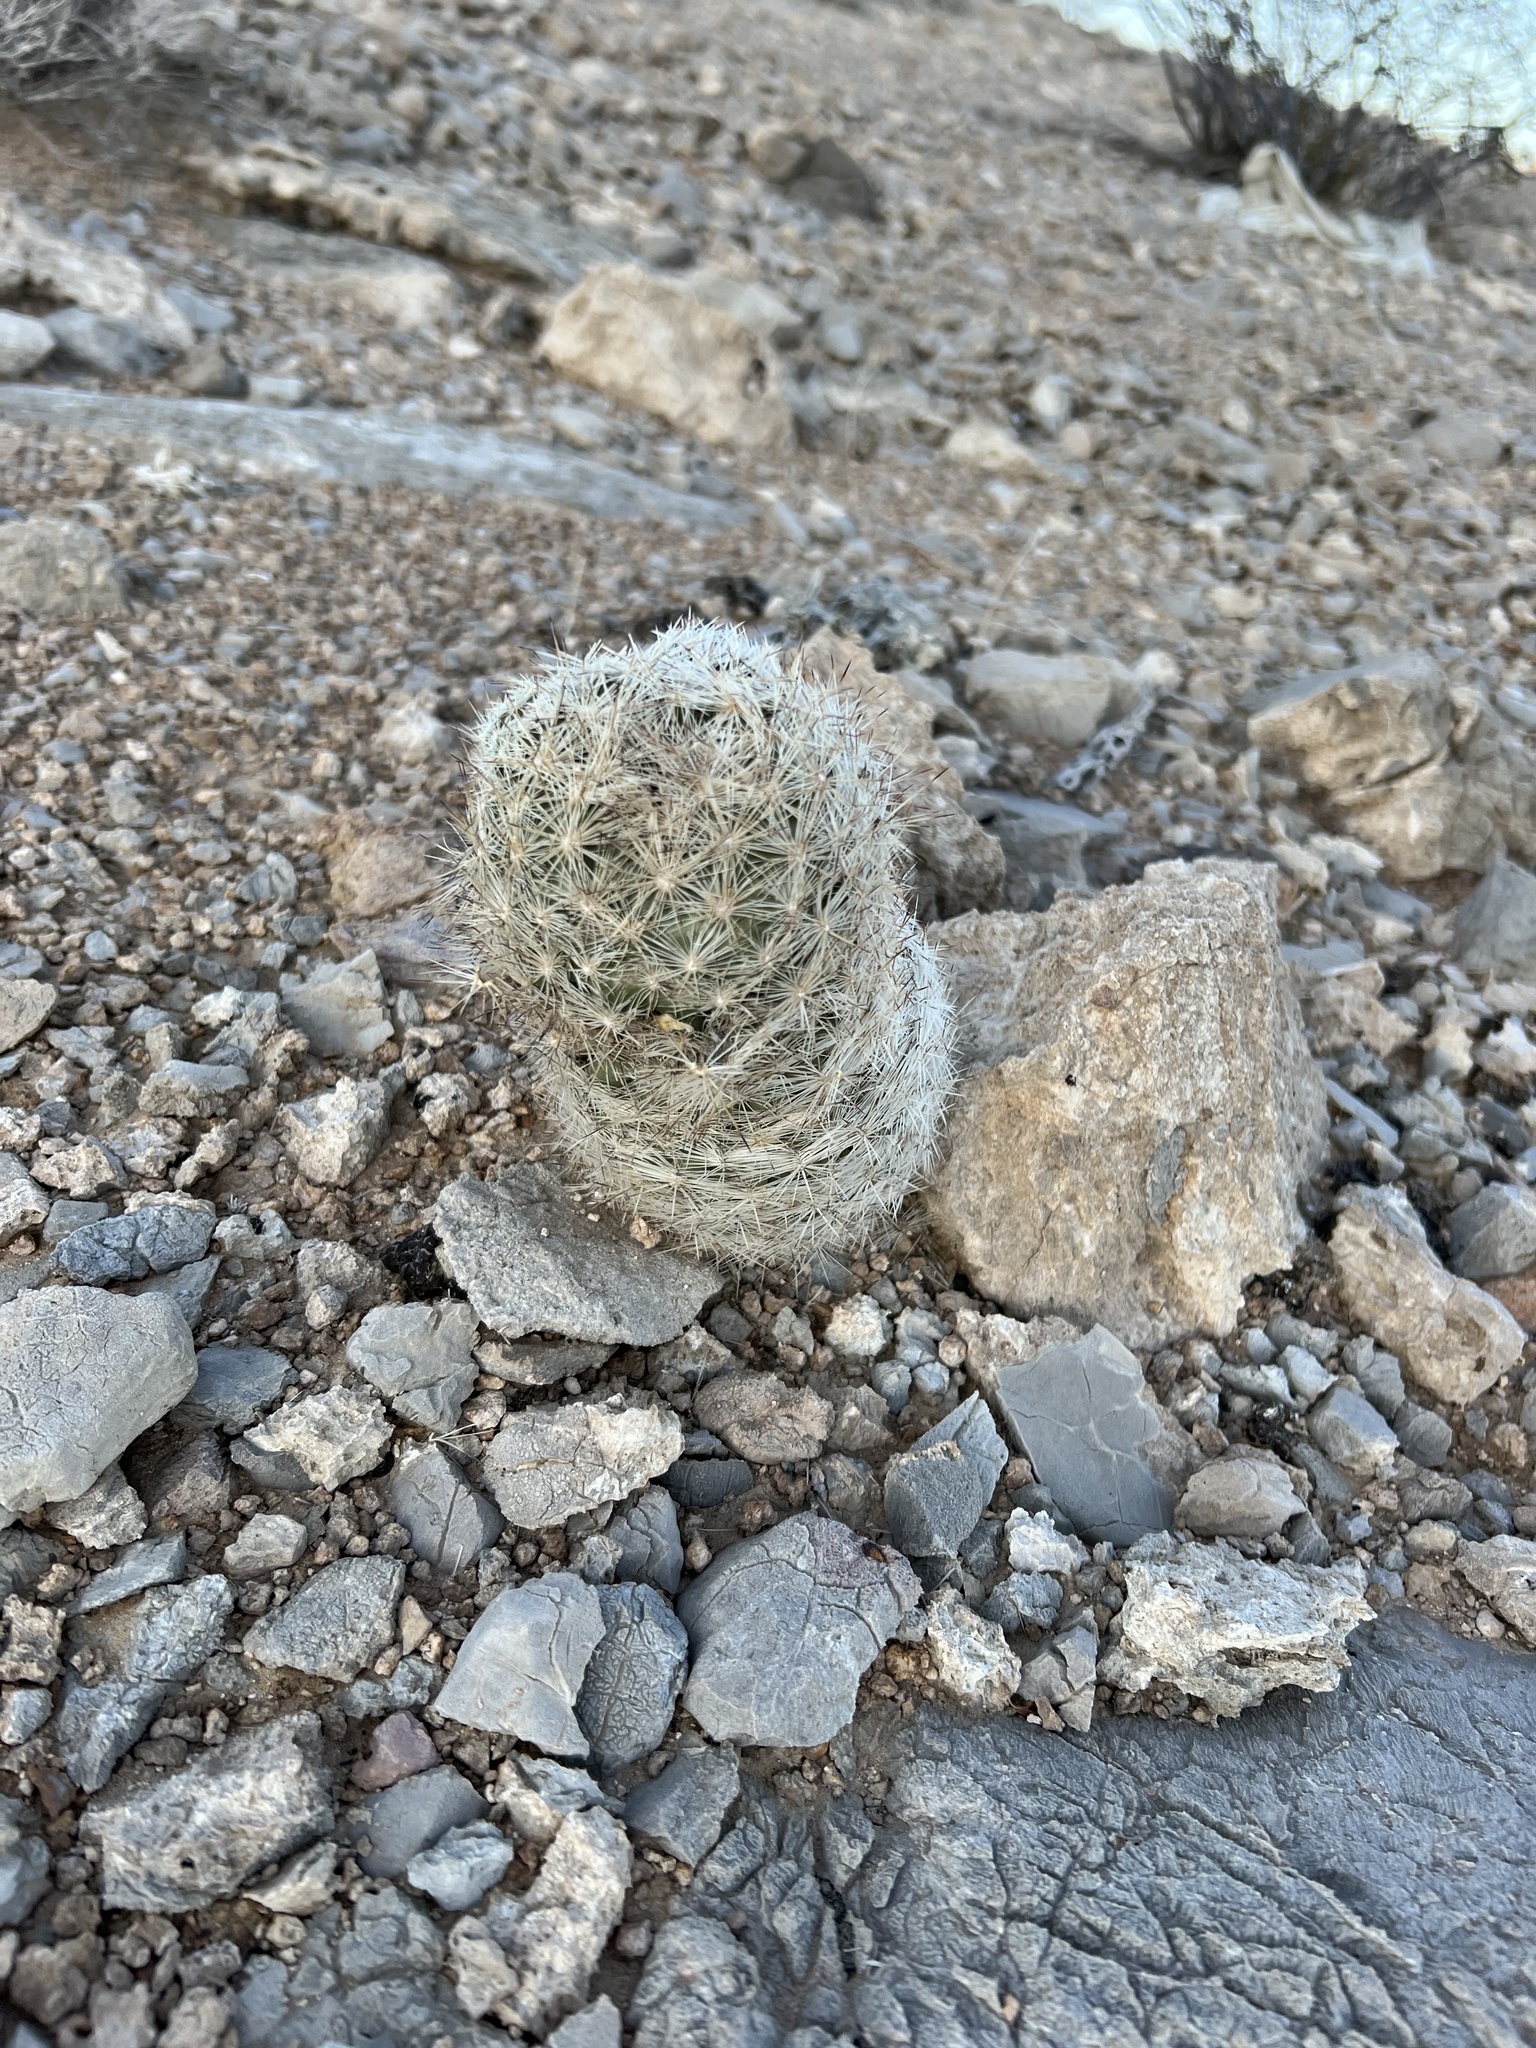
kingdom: Plantae
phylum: Tracheophyta
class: Magnoliopsida
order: Caryophyllales
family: Cactaceae
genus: Pelecyphora
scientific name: Pelecyphora dasyacantha
